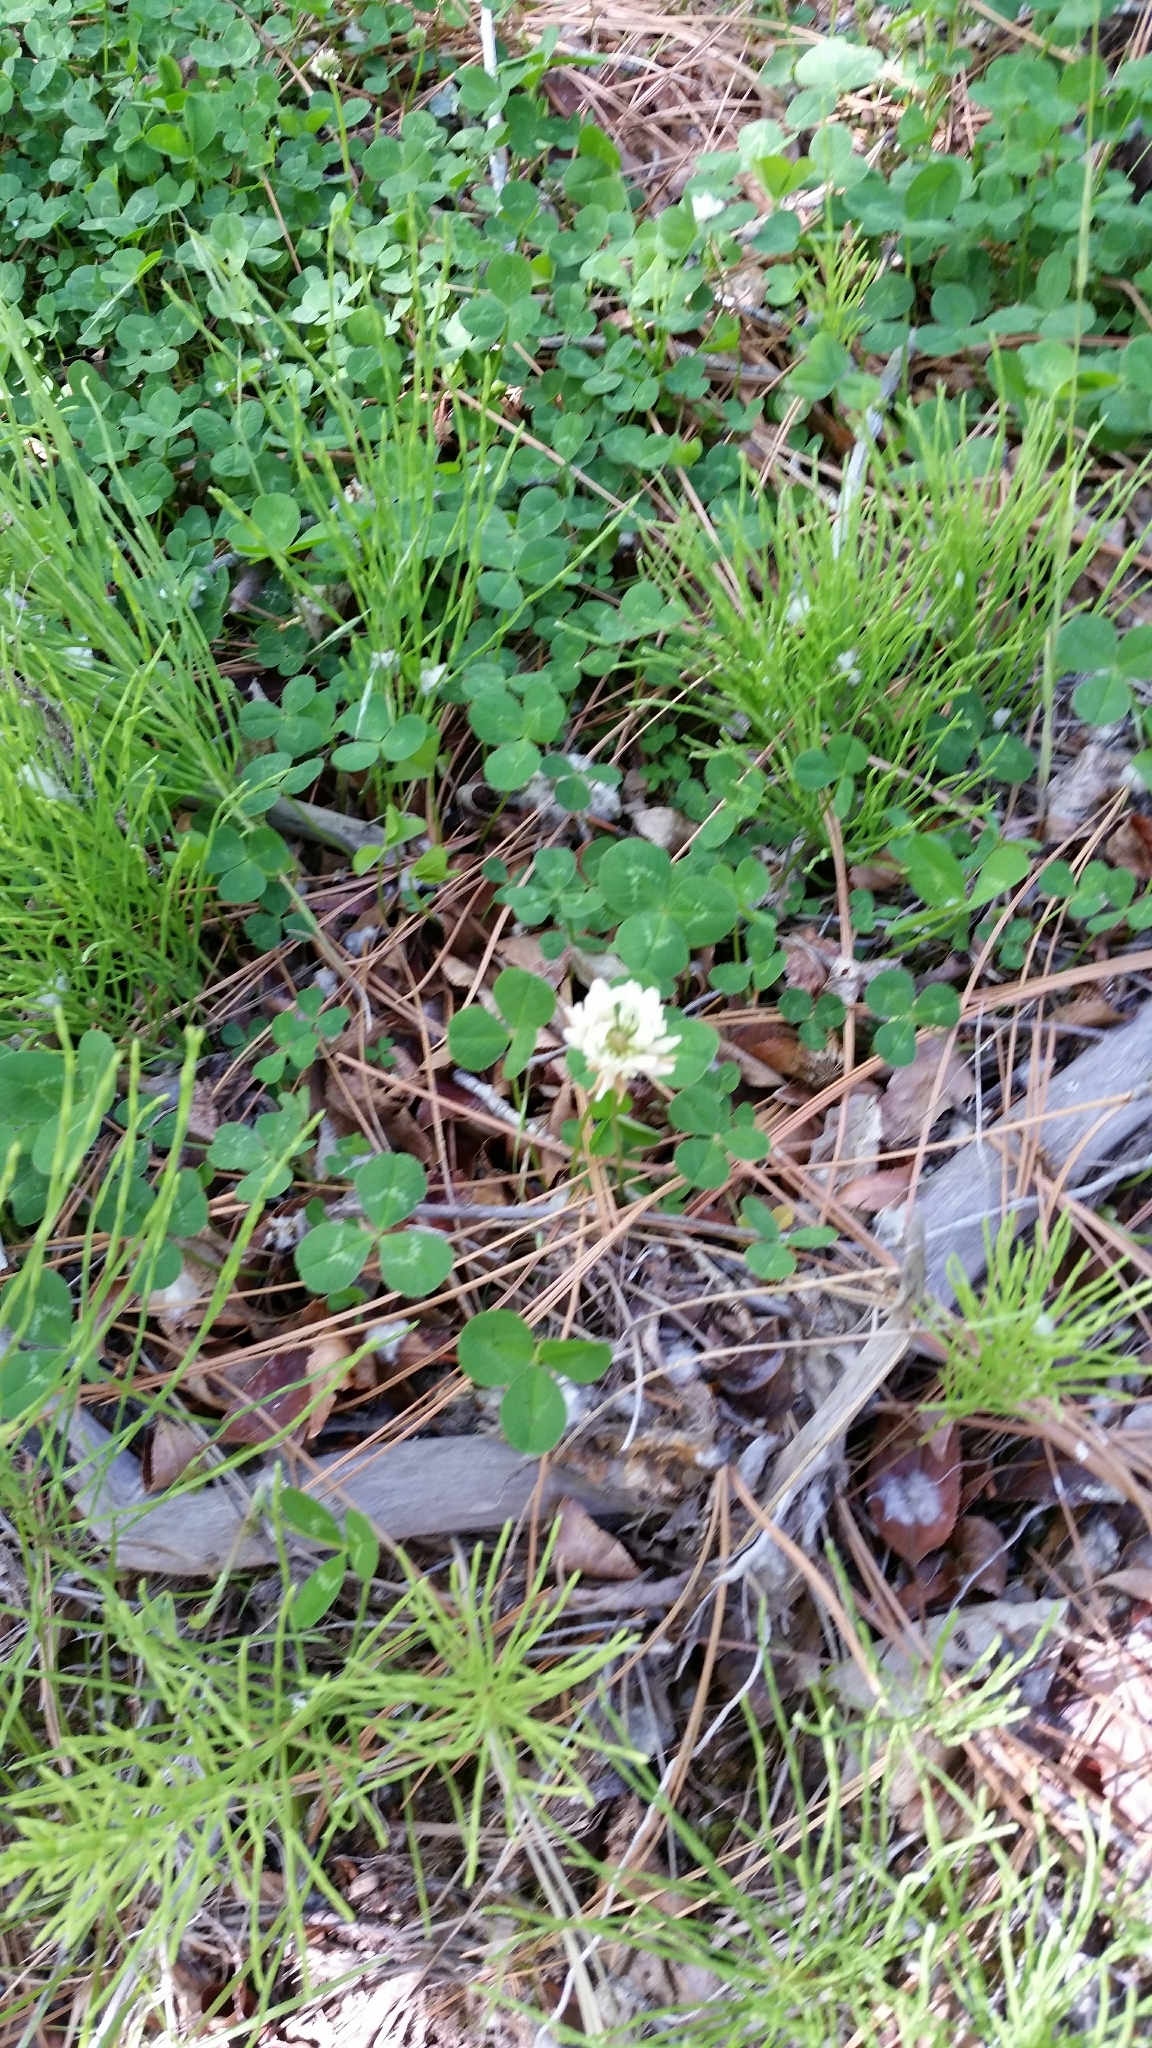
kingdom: Plantae
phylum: Tracheophyta
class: Magnoliopsida
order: Fabales
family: Fabaceae
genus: Trifolium
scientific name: Trifolium repens
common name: White clover
